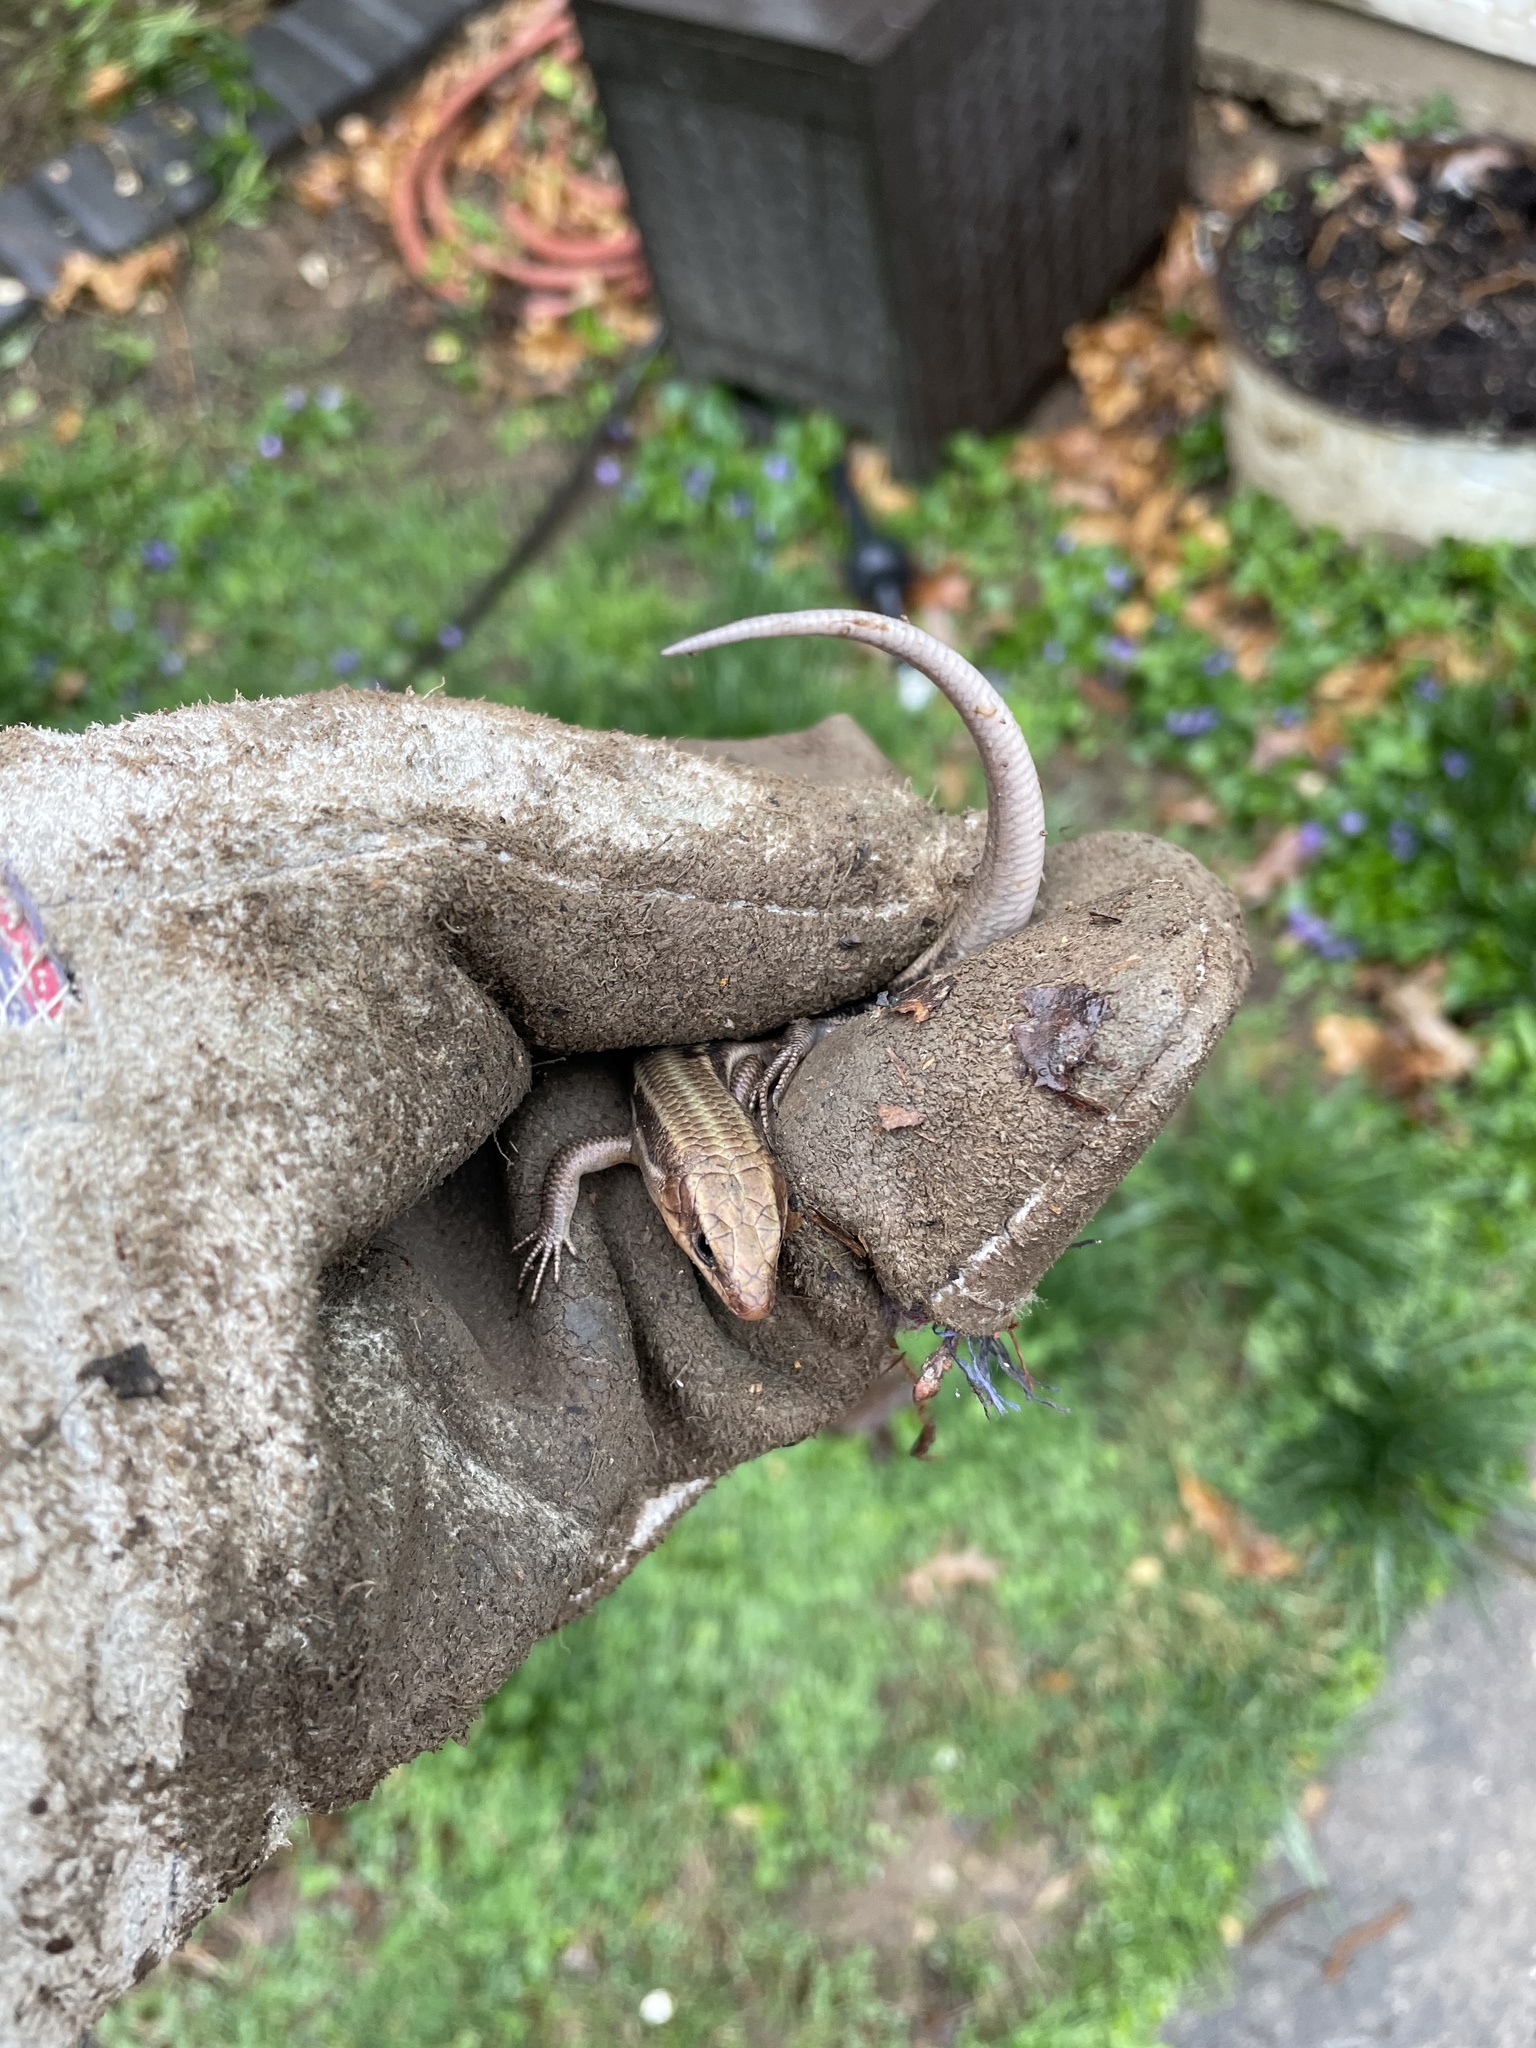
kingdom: Animalia
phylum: Chordata
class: Squamata
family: Scincidae
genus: Plestiodon
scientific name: Plestiodon fasciatus
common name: Five-lined skink
